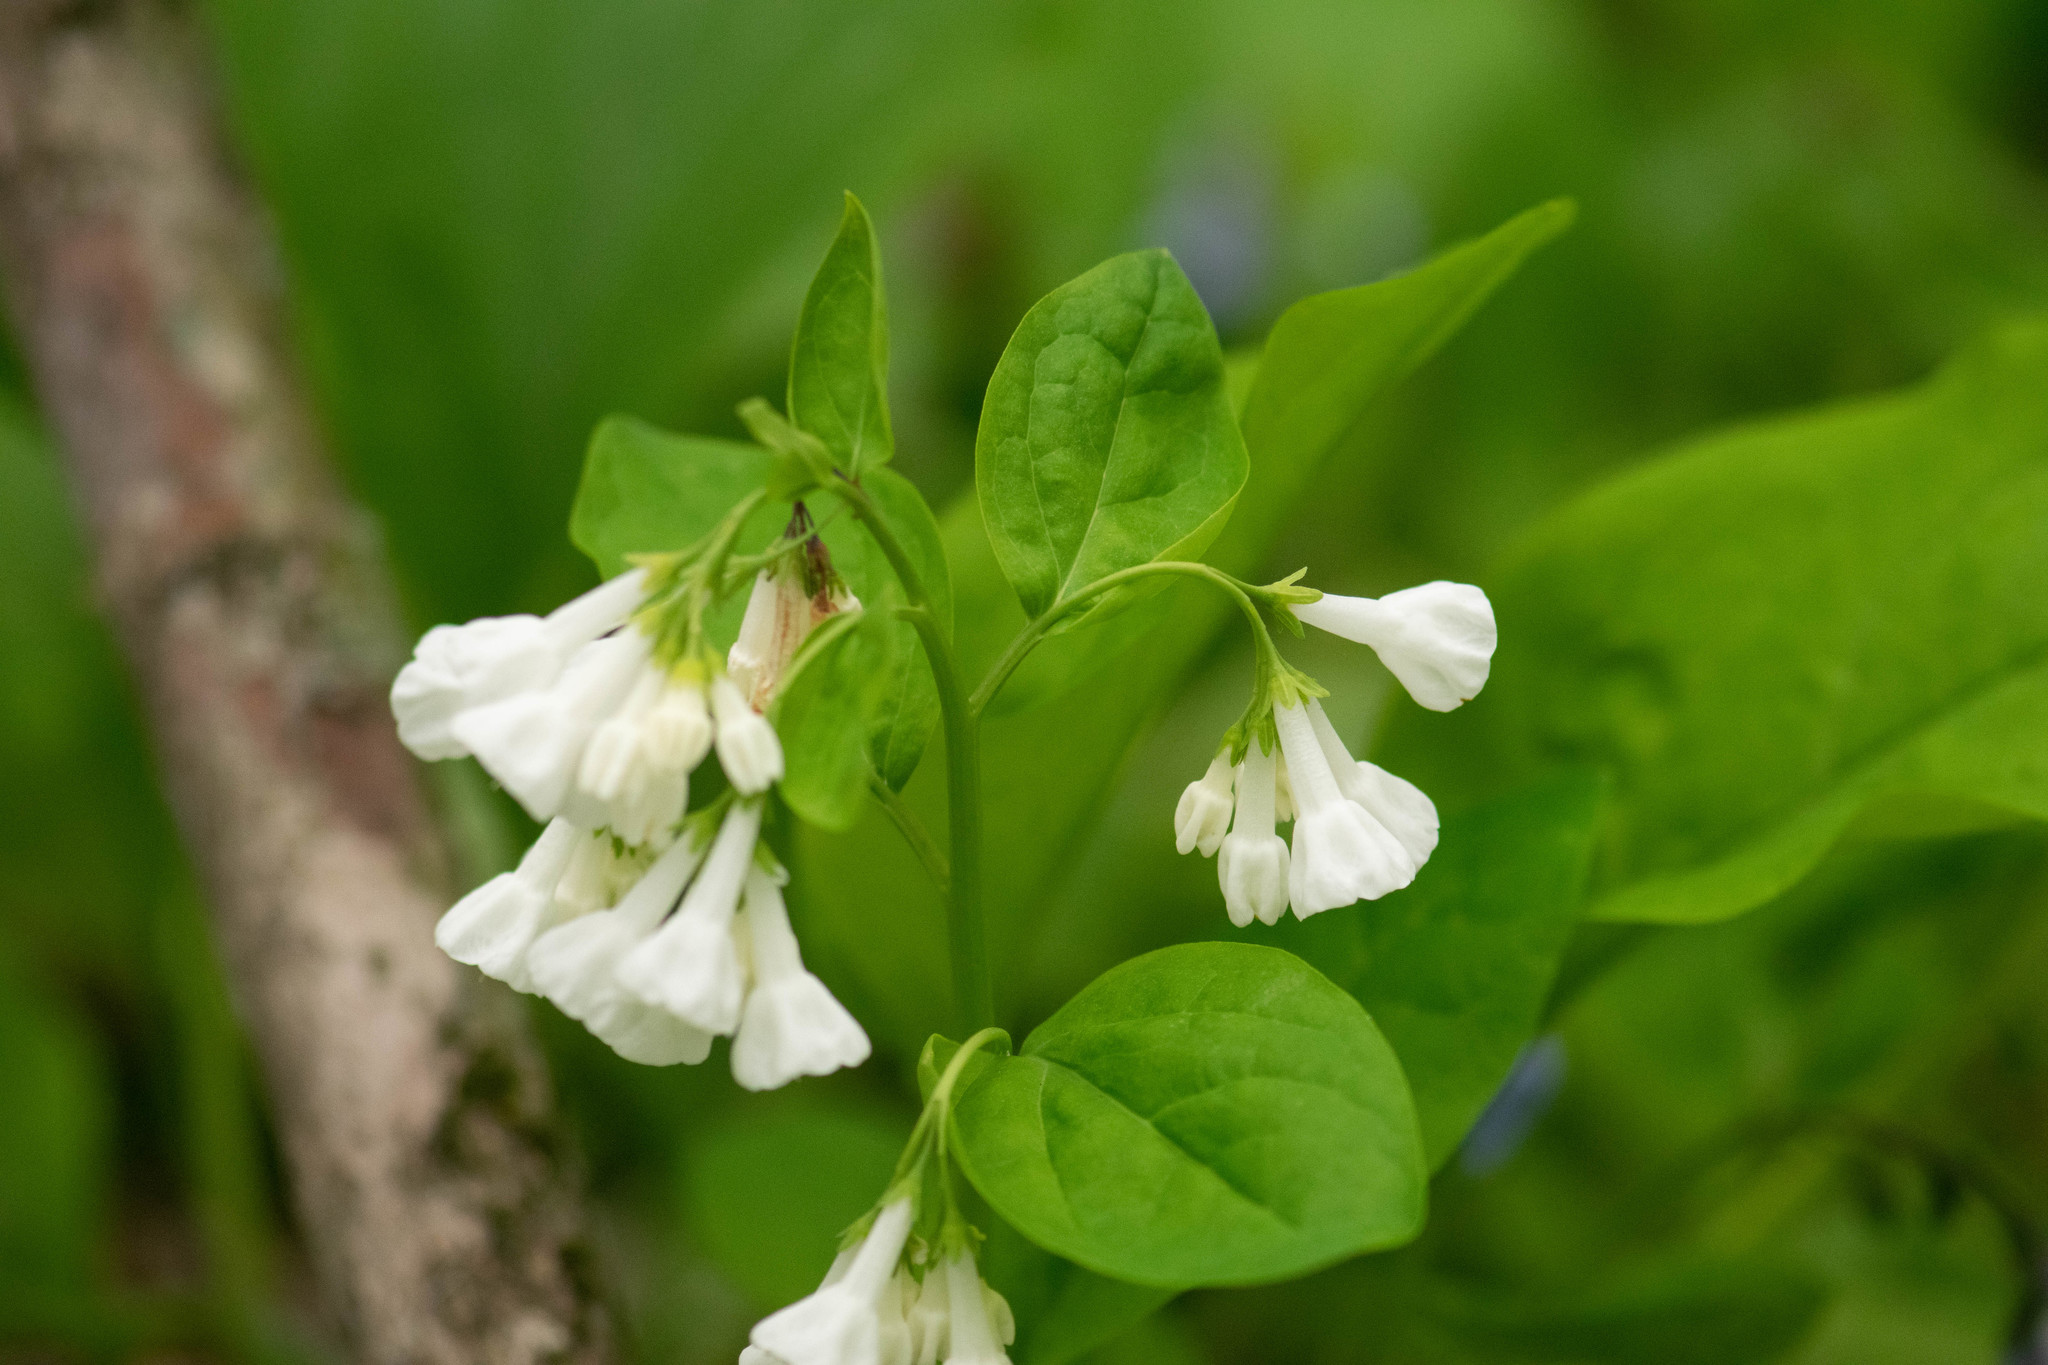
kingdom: Plantae
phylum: Tracheophyta
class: Magnoliopsida
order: Boraginales
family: Boraginaceae
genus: Mertensia
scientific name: Mertensia virginica
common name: Virginia bluebells
